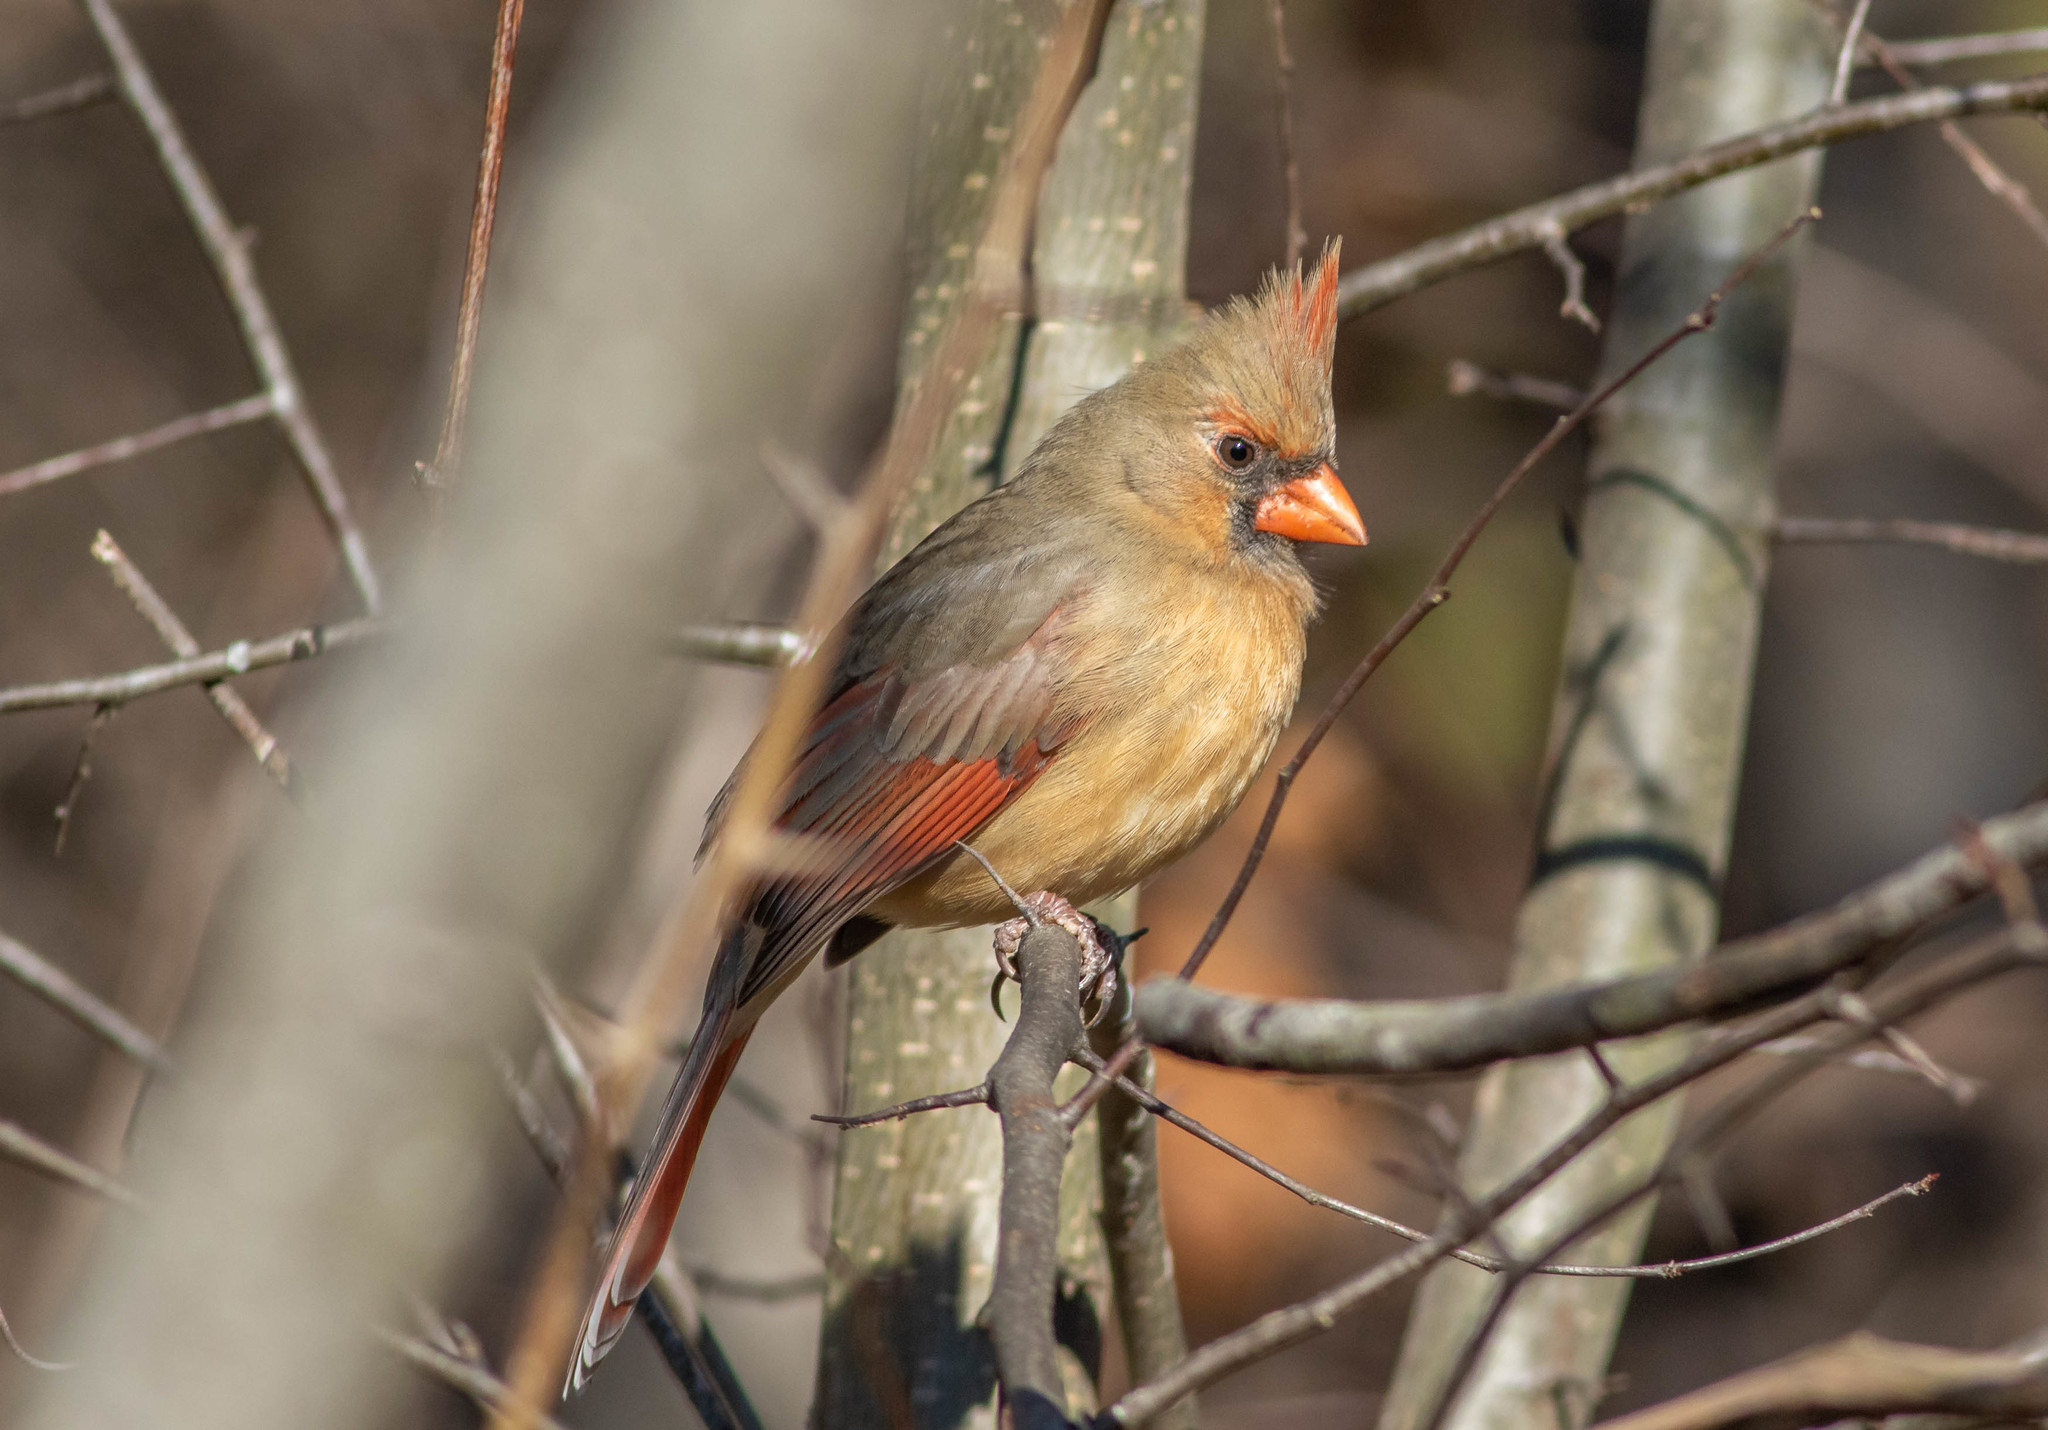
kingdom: Animalia
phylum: Chordata
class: Aves
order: Passeriformes
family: Cardinalidae
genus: Cardinalis
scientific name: Cardinalis cardinalis
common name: Northern cardinal
